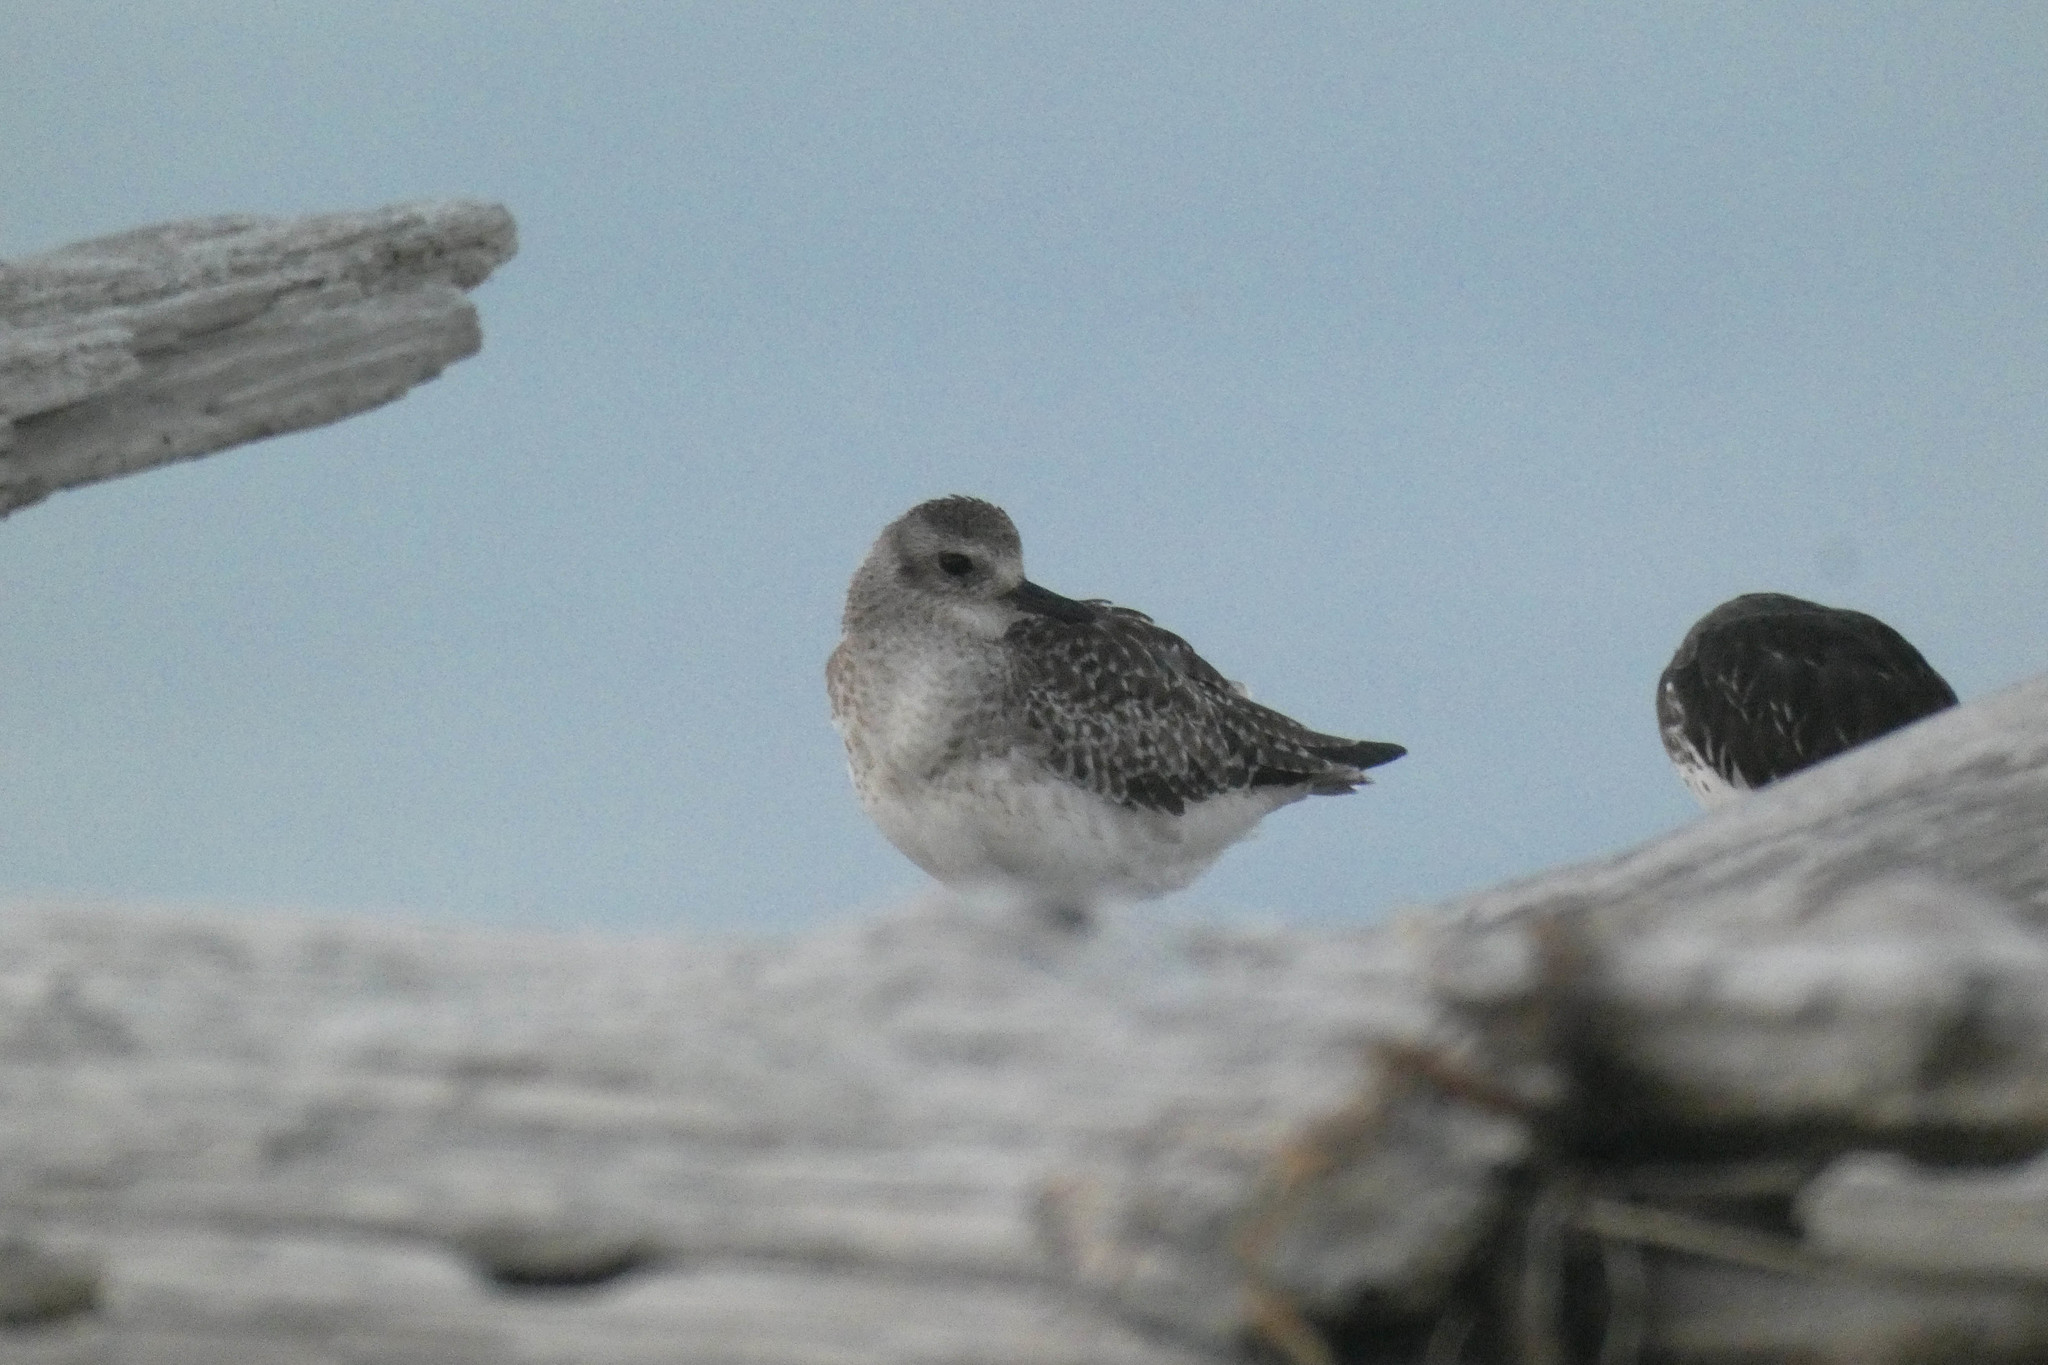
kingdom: Animalia
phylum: Chordata
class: Aves
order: Charadriiformes
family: Charadriidae
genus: Pluvialis
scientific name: Pluvialis squatarola
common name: Grey plover
